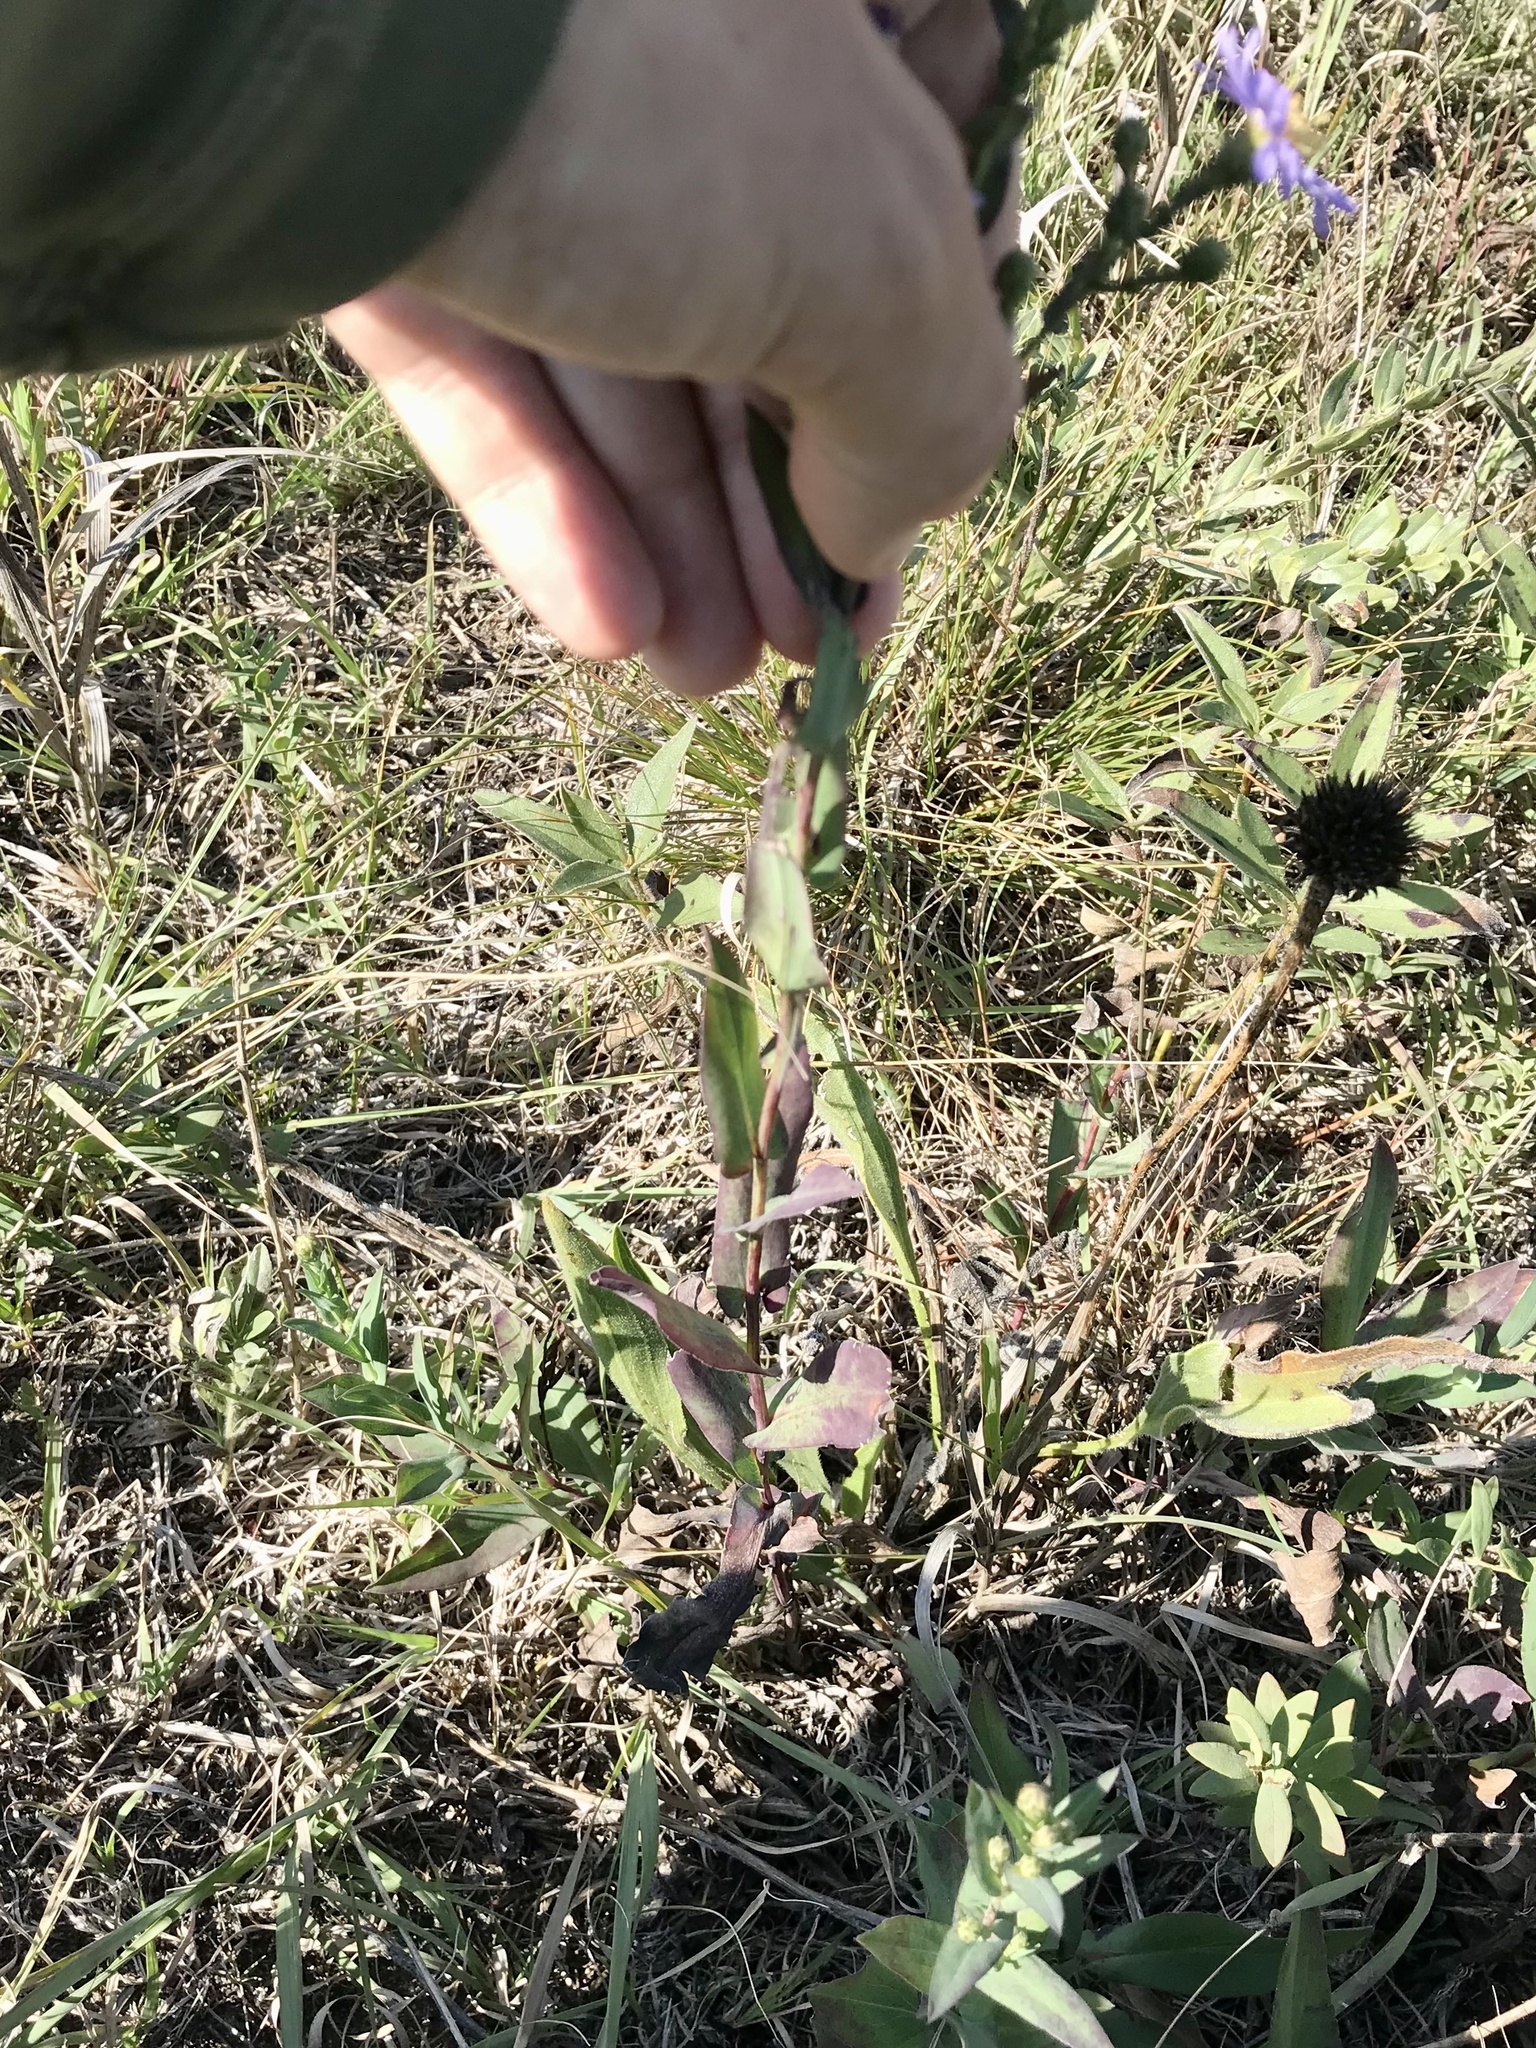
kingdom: Plantae
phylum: Tracheophyta
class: Magnoliopsida
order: Asterales
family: Asteraceae
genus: Symphyotrichum
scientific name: Symphyotrichum laeve
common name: Glaucous aster
